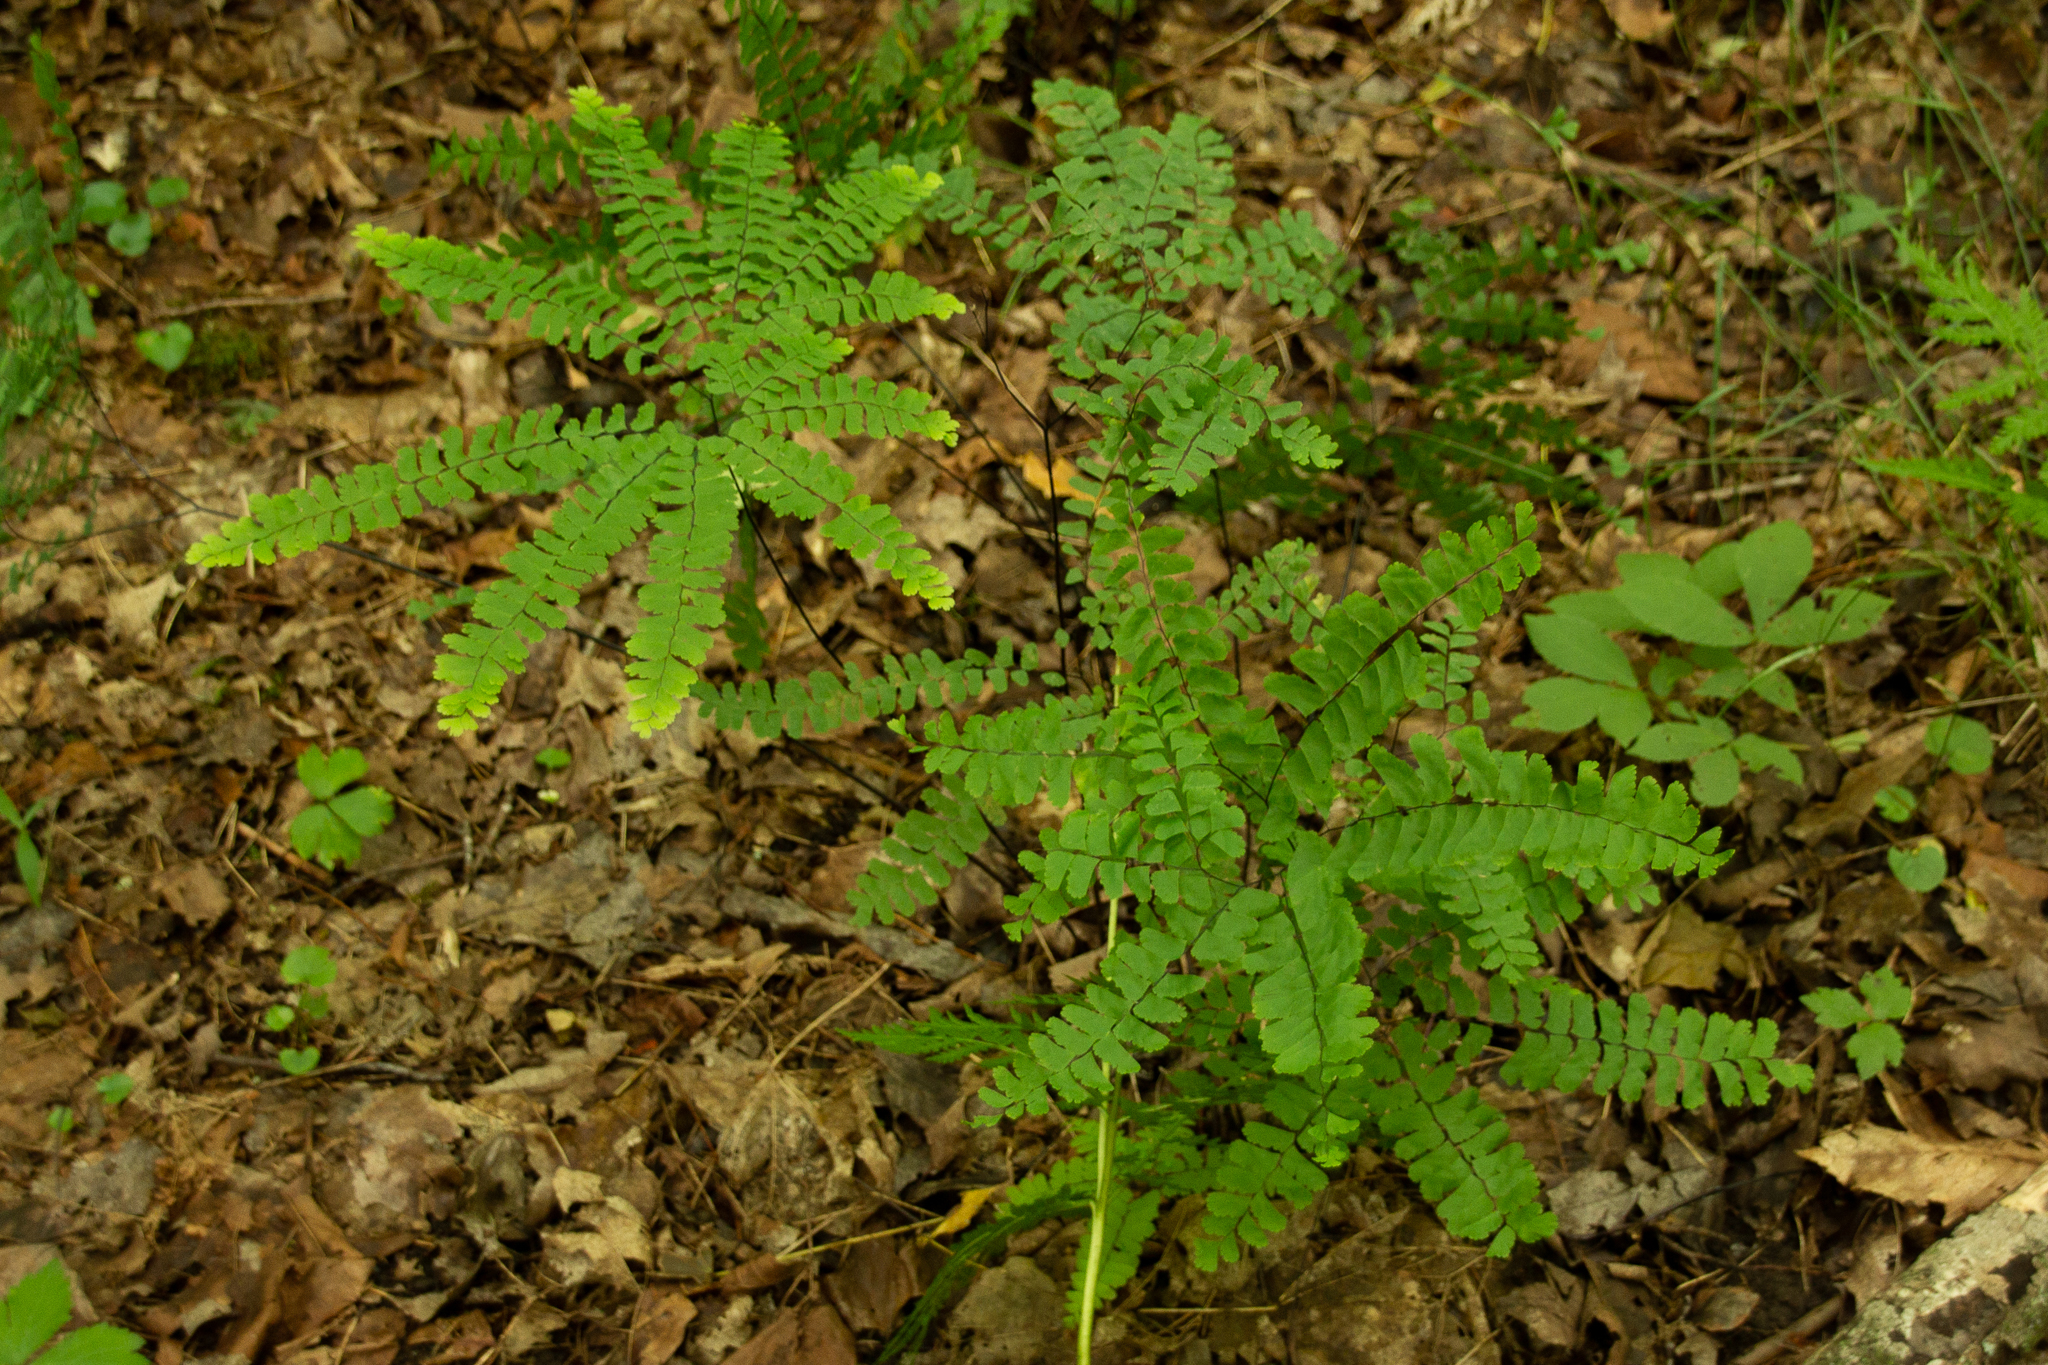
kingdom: Plantae
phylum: Tracheophyta
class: Polypodiopsida
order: Polypodiales
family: Pteridaceae
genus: Adiantum
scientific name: Adiantum pedatum
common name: Five-finger fern
